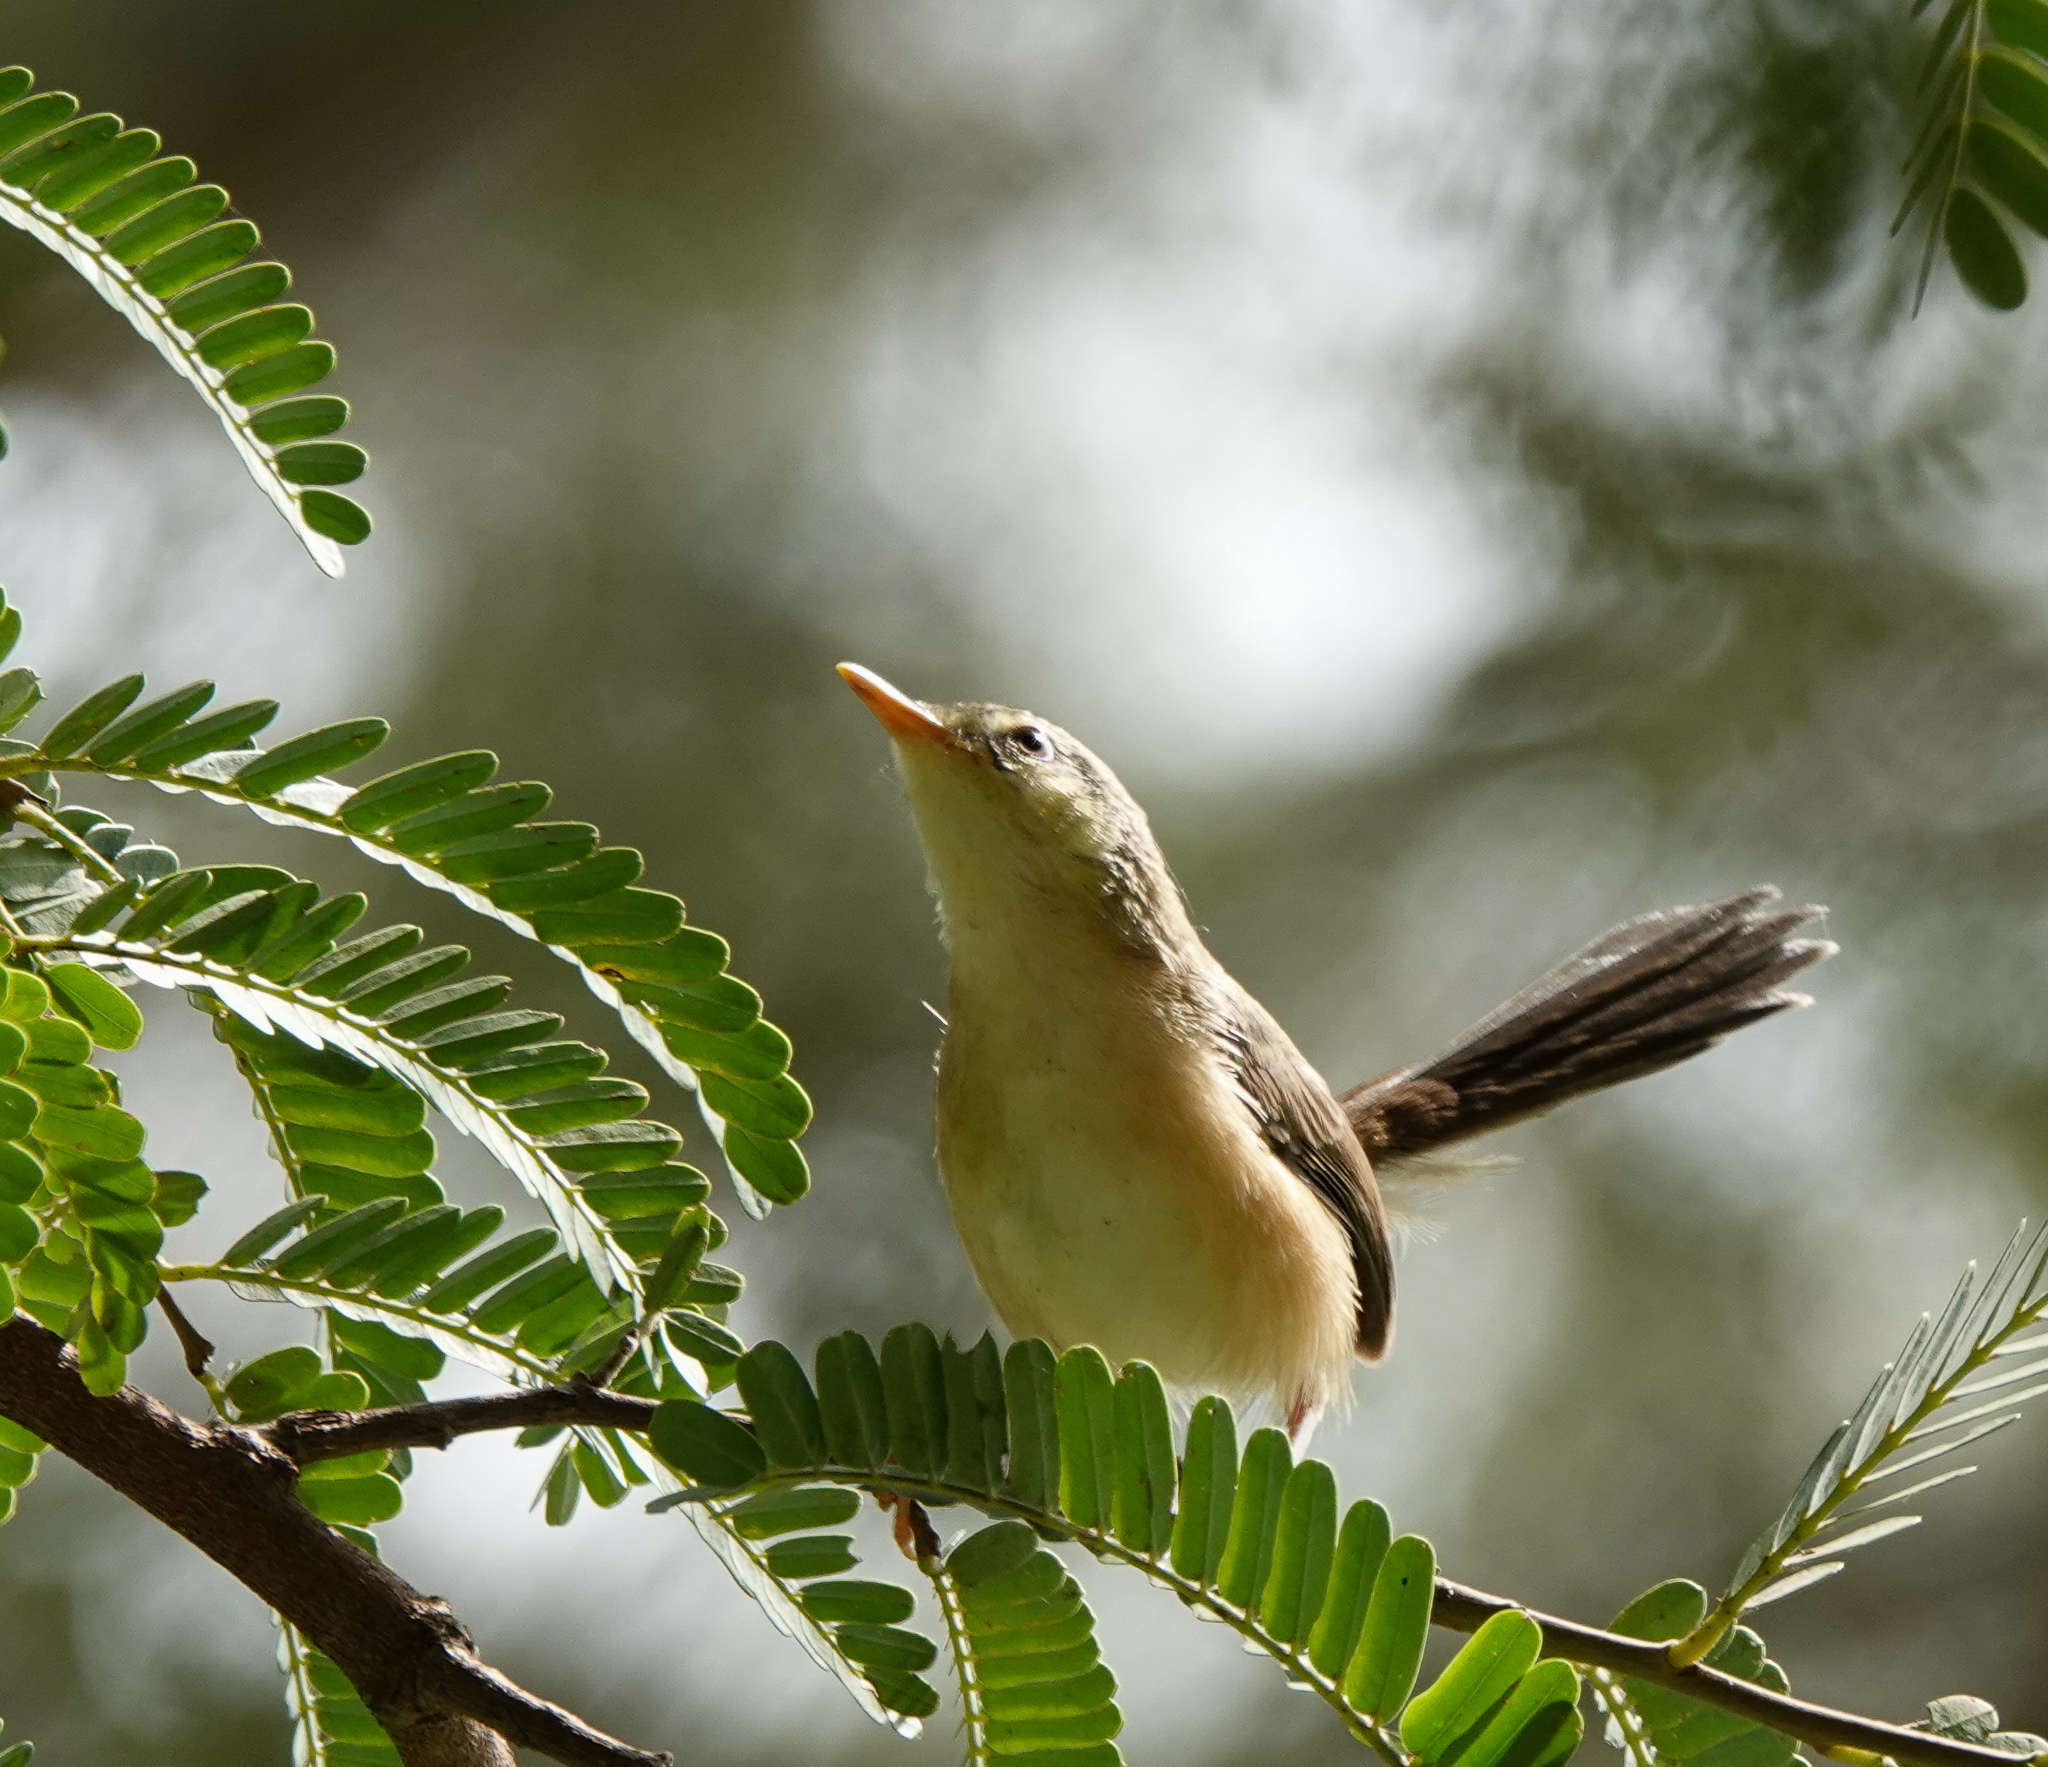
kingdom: Animalia
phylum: Chordata
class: Aves
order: Passeriformes
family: Cisticolidae
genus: Prinia
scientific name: Prinia socialis
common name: Ashy prinia
